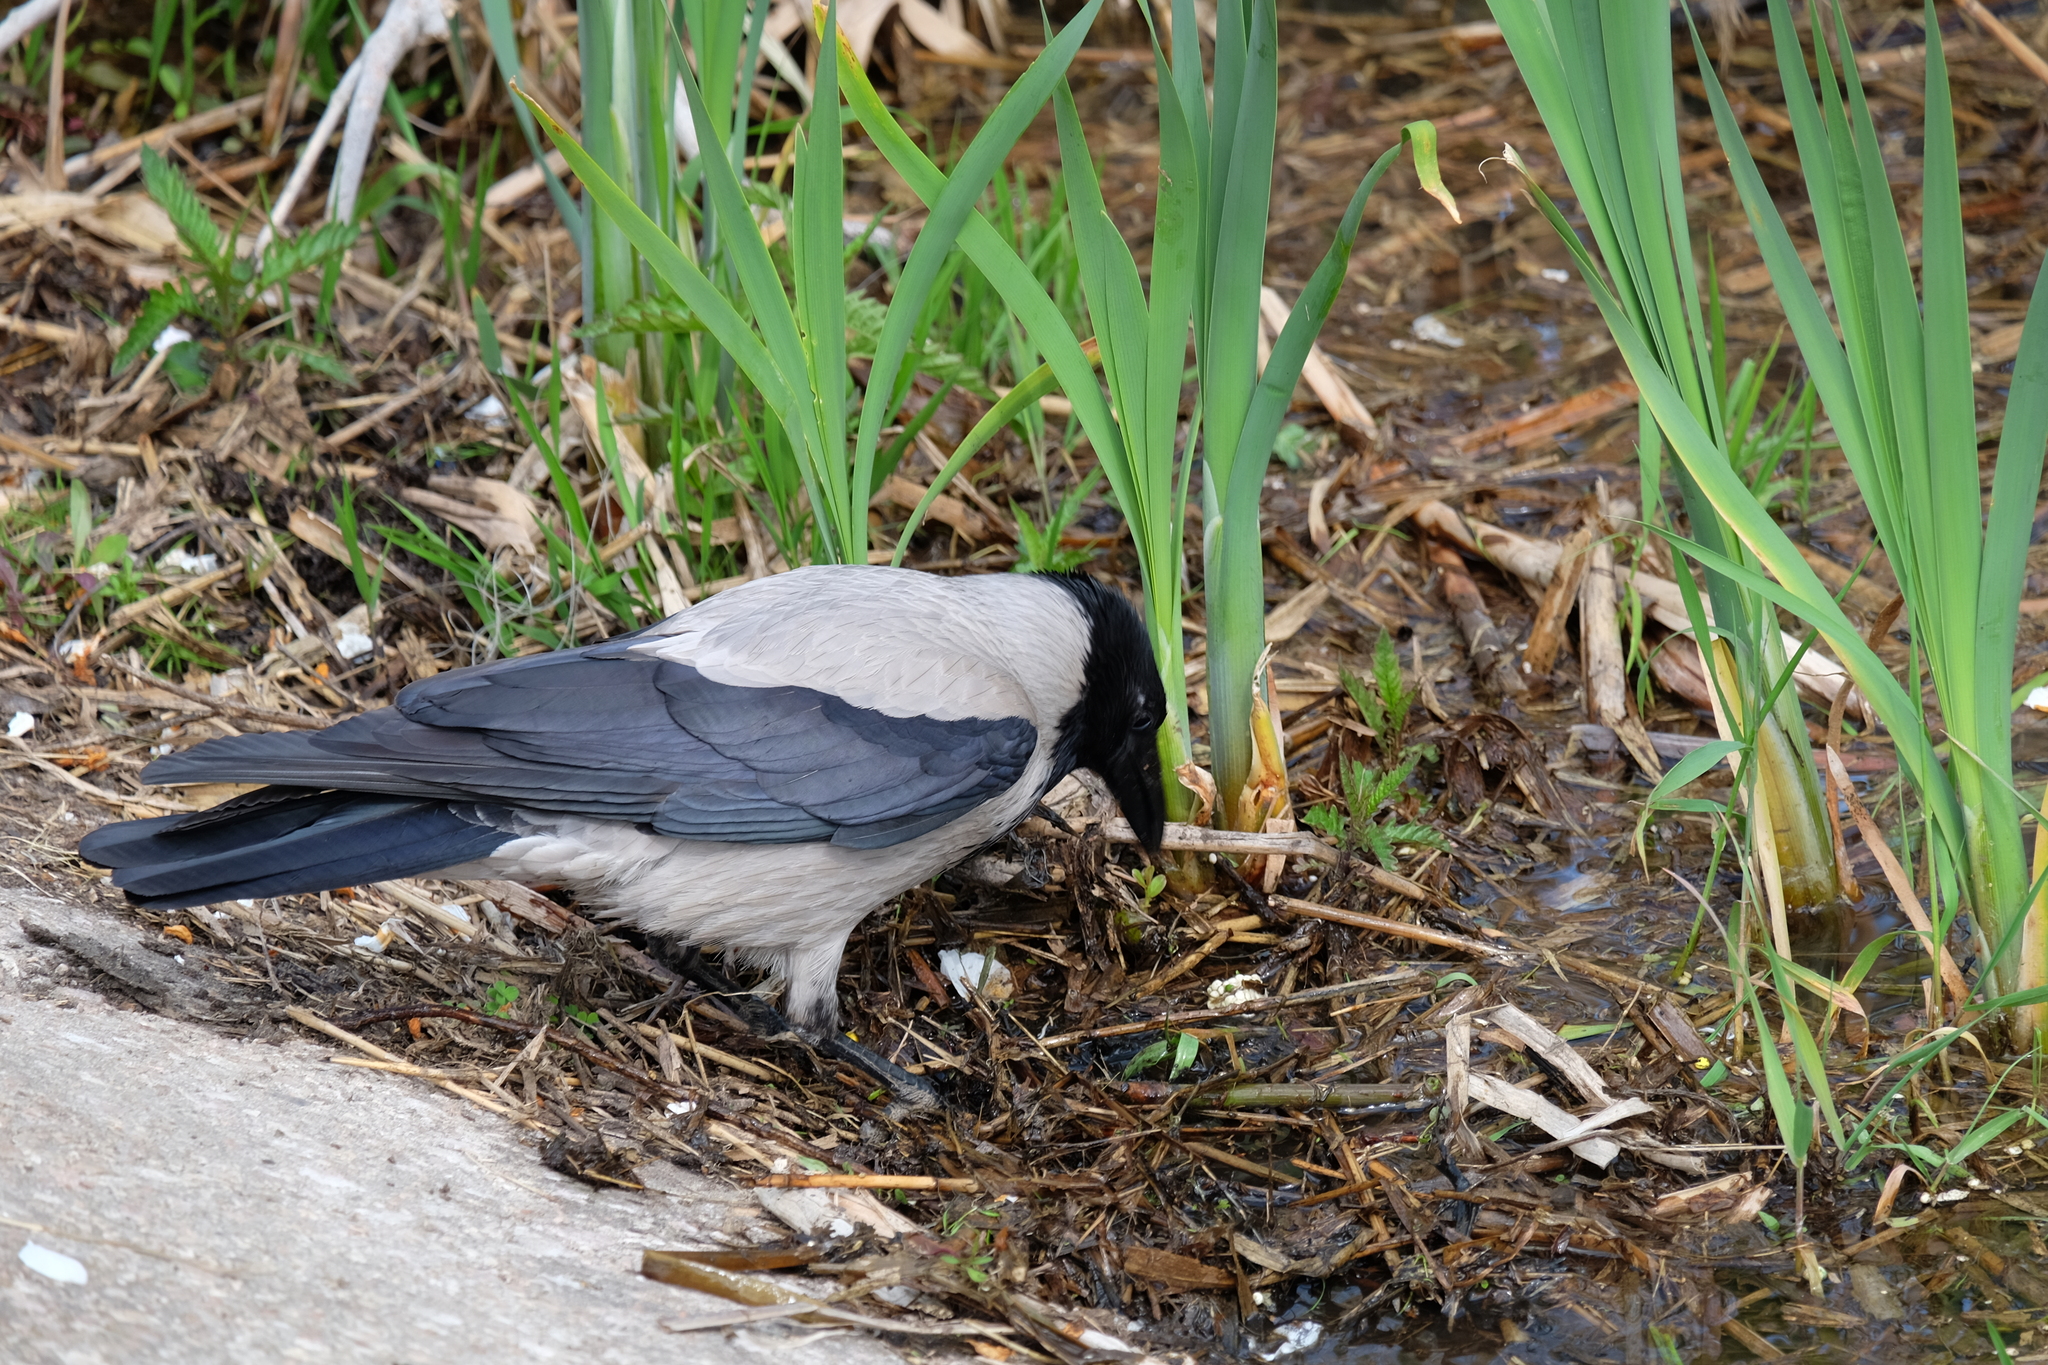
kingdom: Animalia
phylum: Chordata
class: Aves
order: Passeriformes
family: Corvidae
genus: Corvus
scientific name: Corvus cornix
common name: Hooded crow
